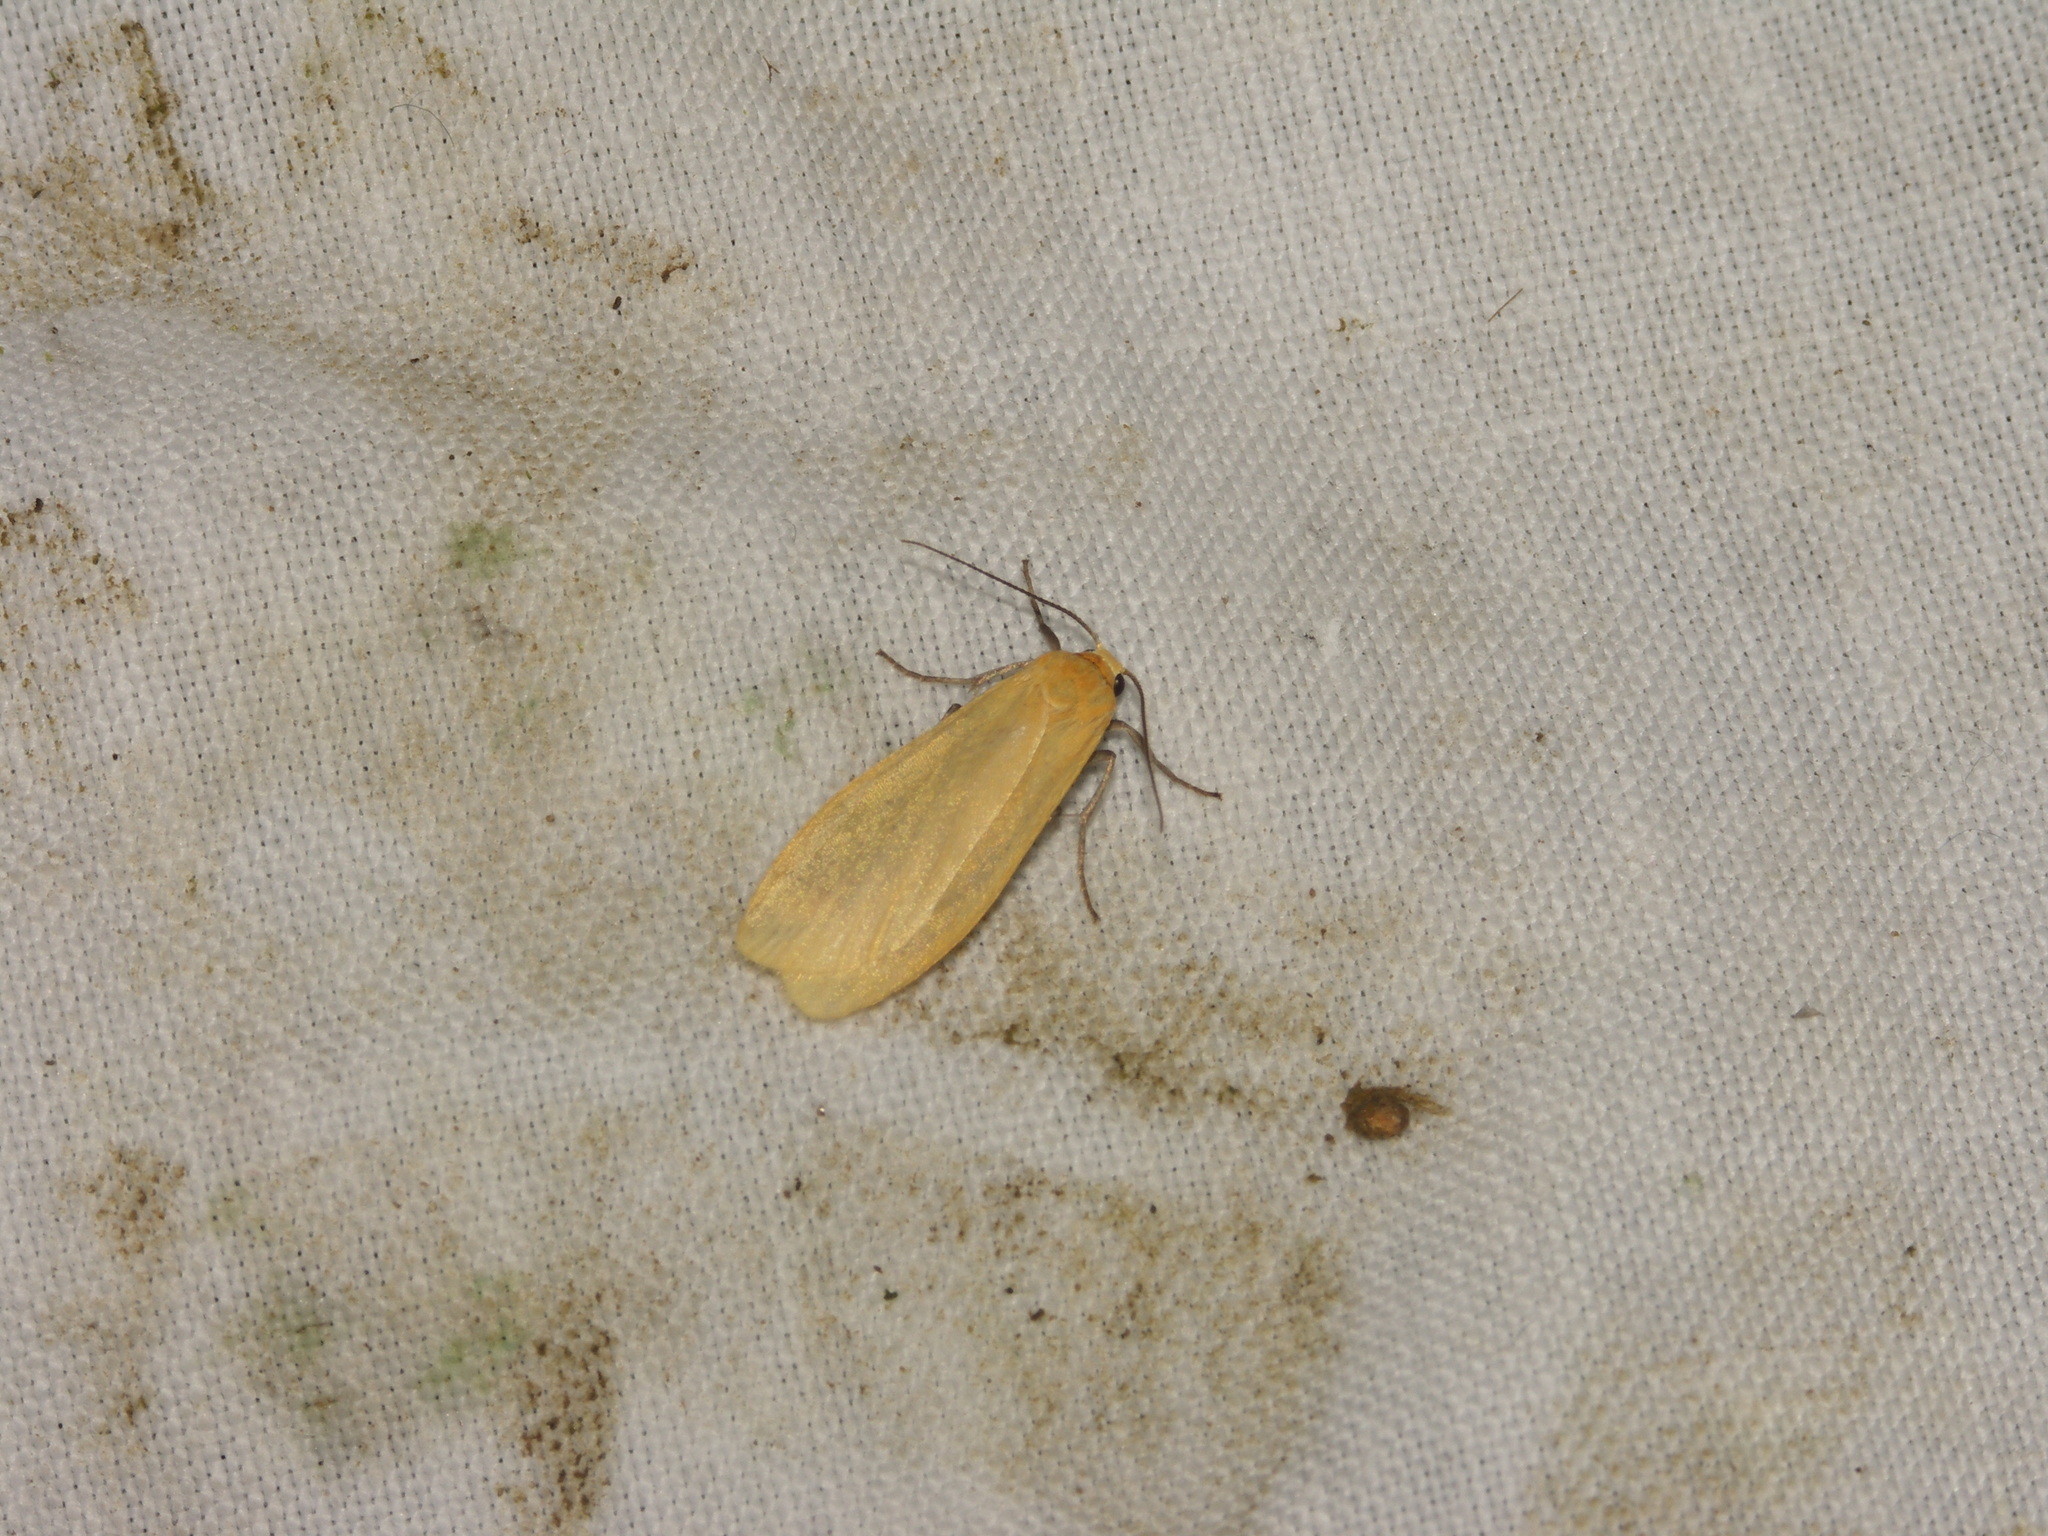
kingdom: Animalia
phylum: Arthropoda
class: Insecta
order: Lepidoptera
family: Erebidae
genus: Wittia
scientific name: Wittia sororcula
